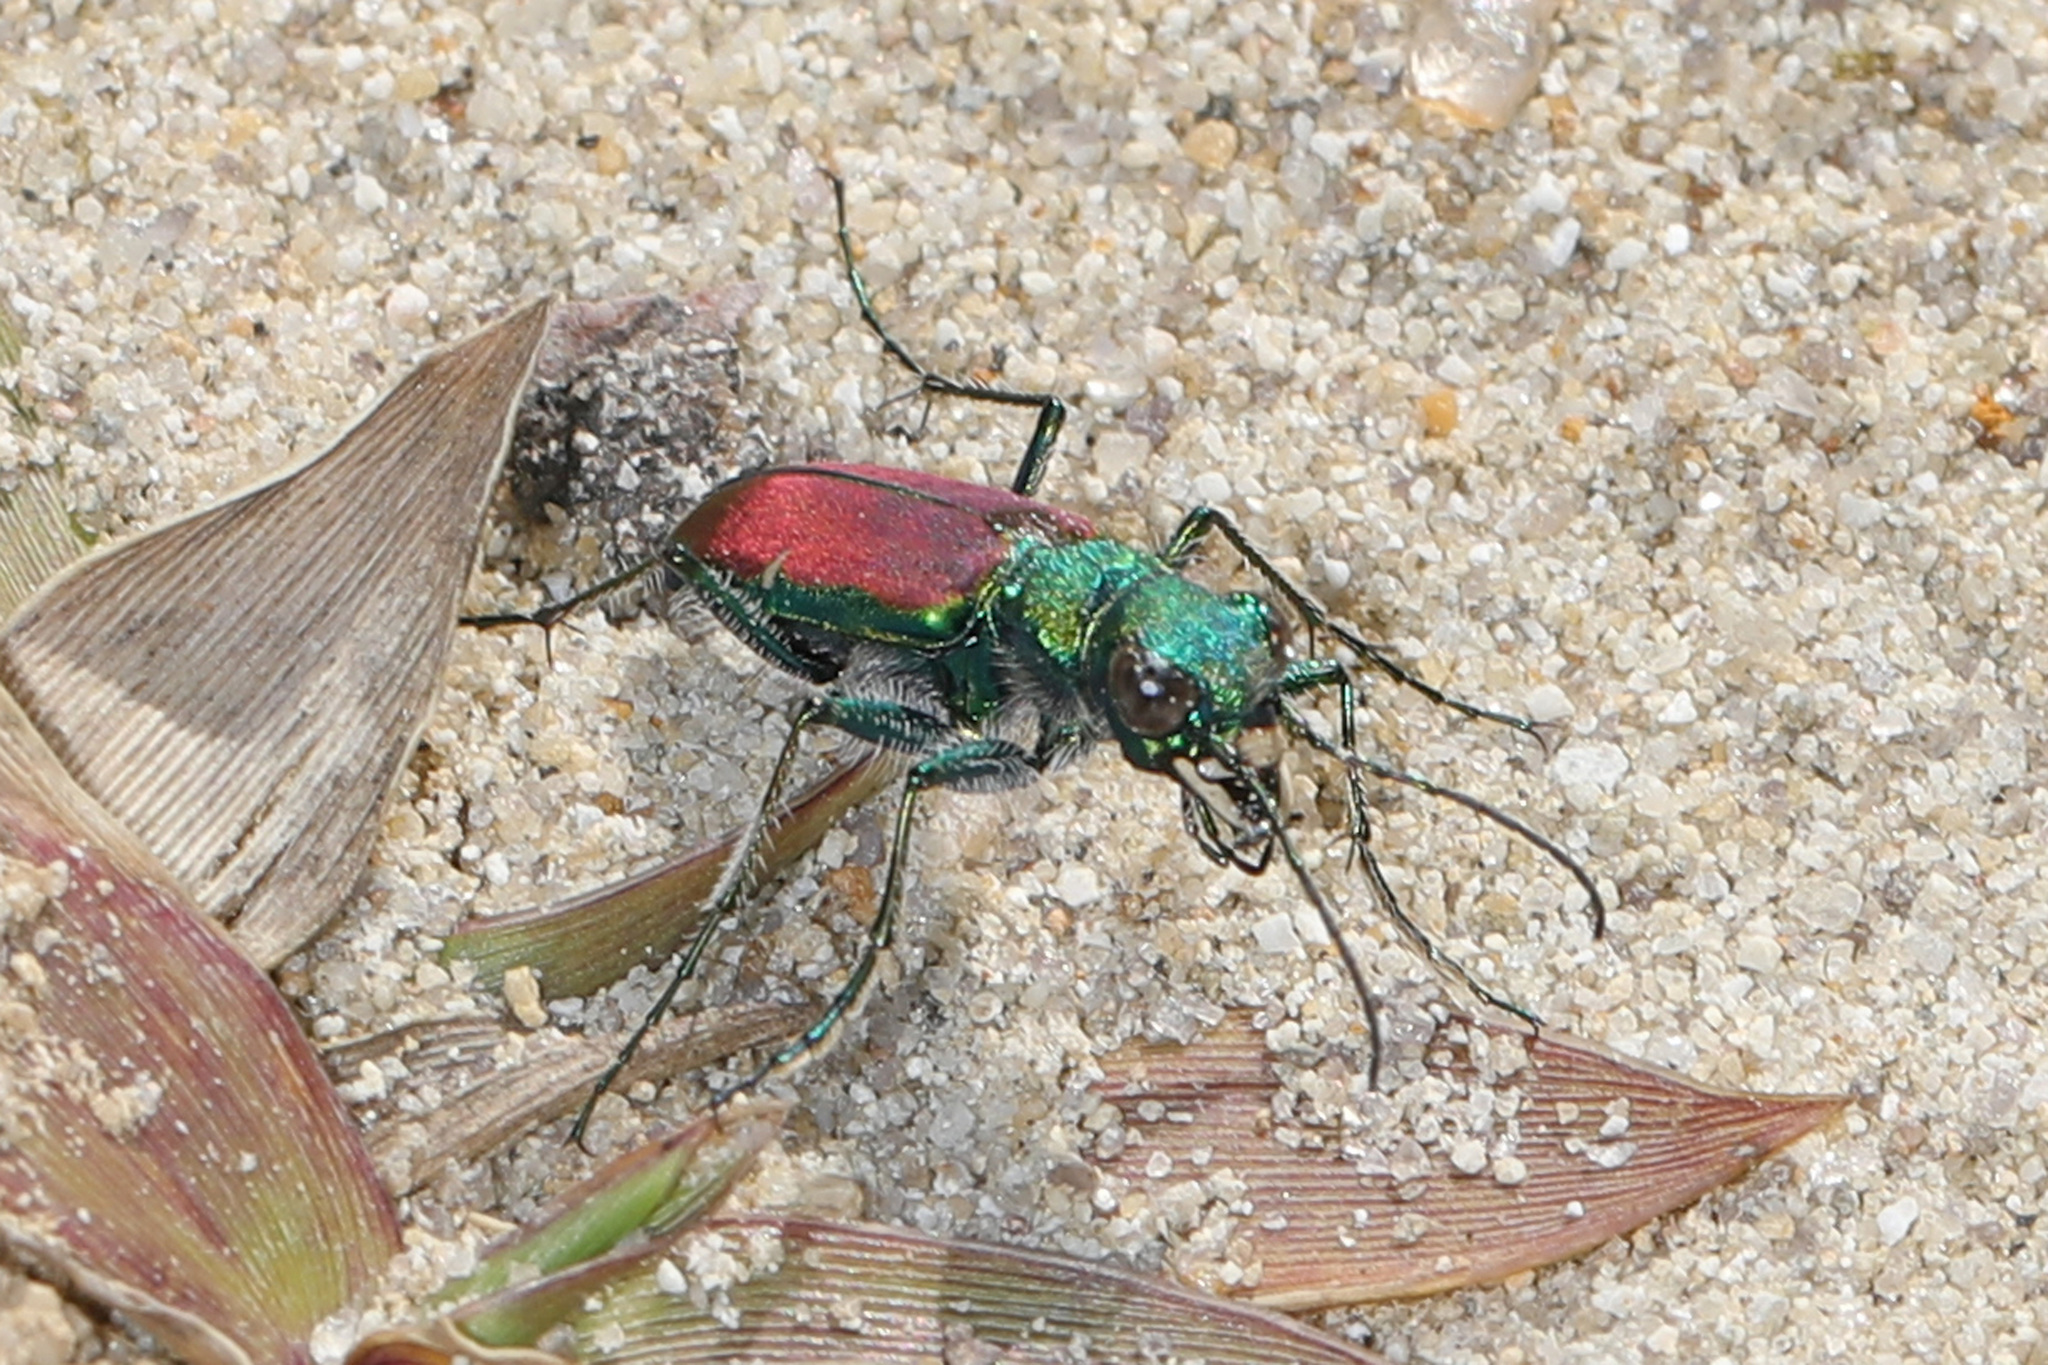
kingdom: Animalia
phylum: Arthropoda
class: Insecta
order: Coleoptera
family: Carabidae
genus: Cicindela
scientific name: Cicindela splendida
